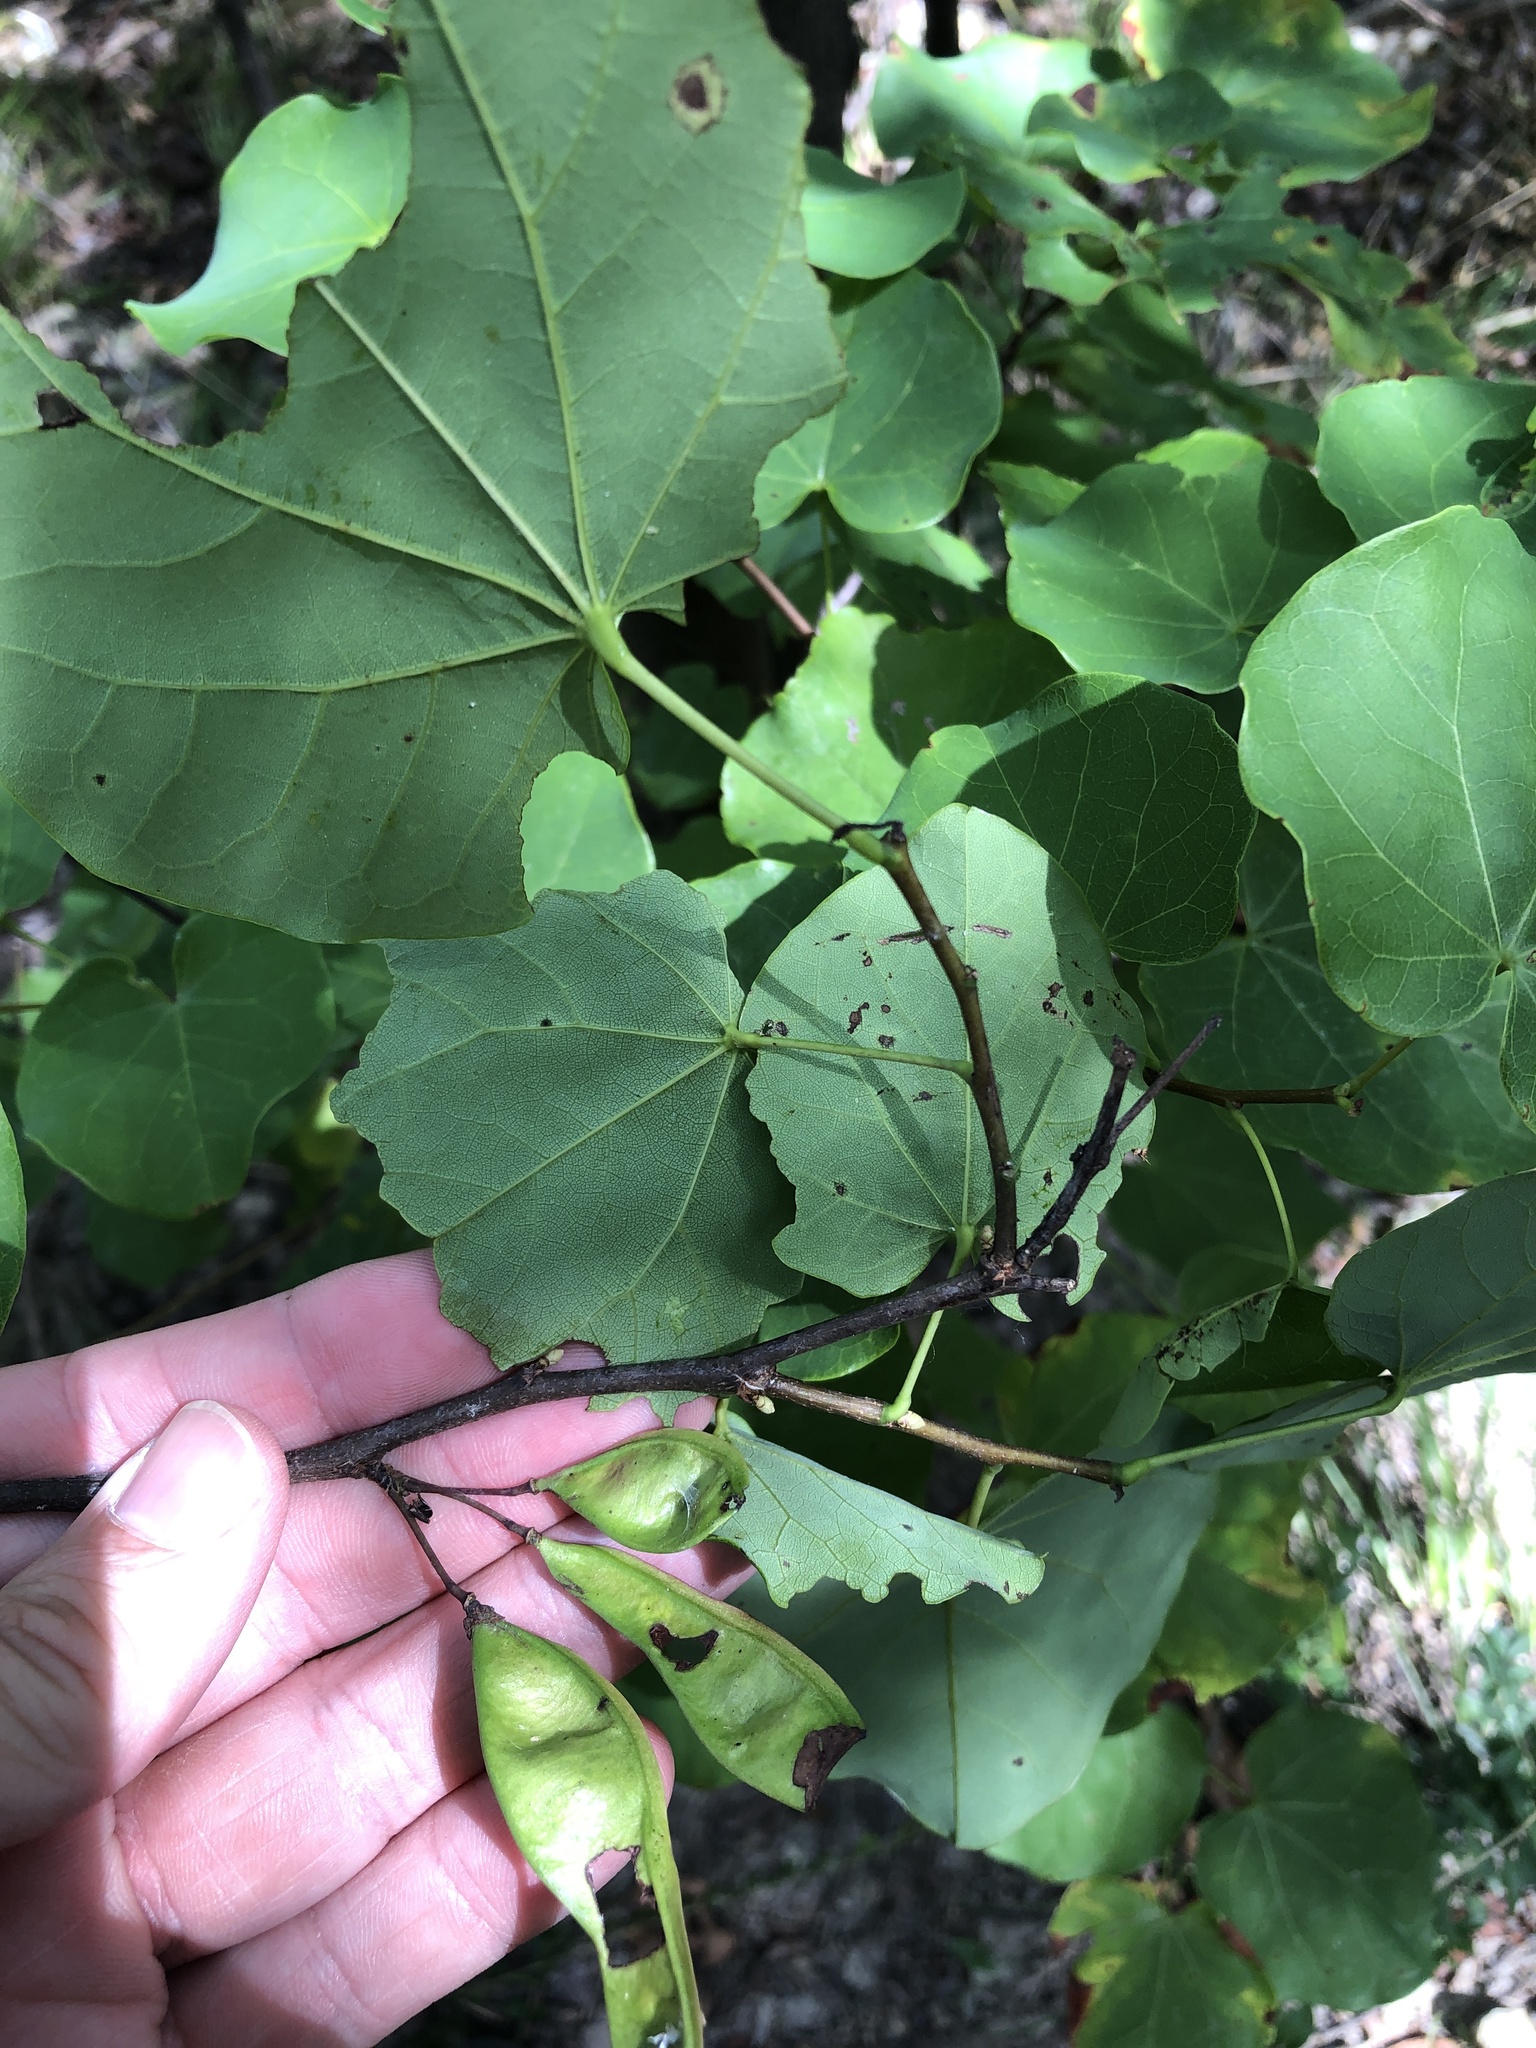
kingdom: Plantae
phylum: Tracheophyta
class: Magnoliopsida
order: Fabales
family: Fabaceae
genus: Cercis
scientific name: Cercis canadensis
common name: Eastern redbud
